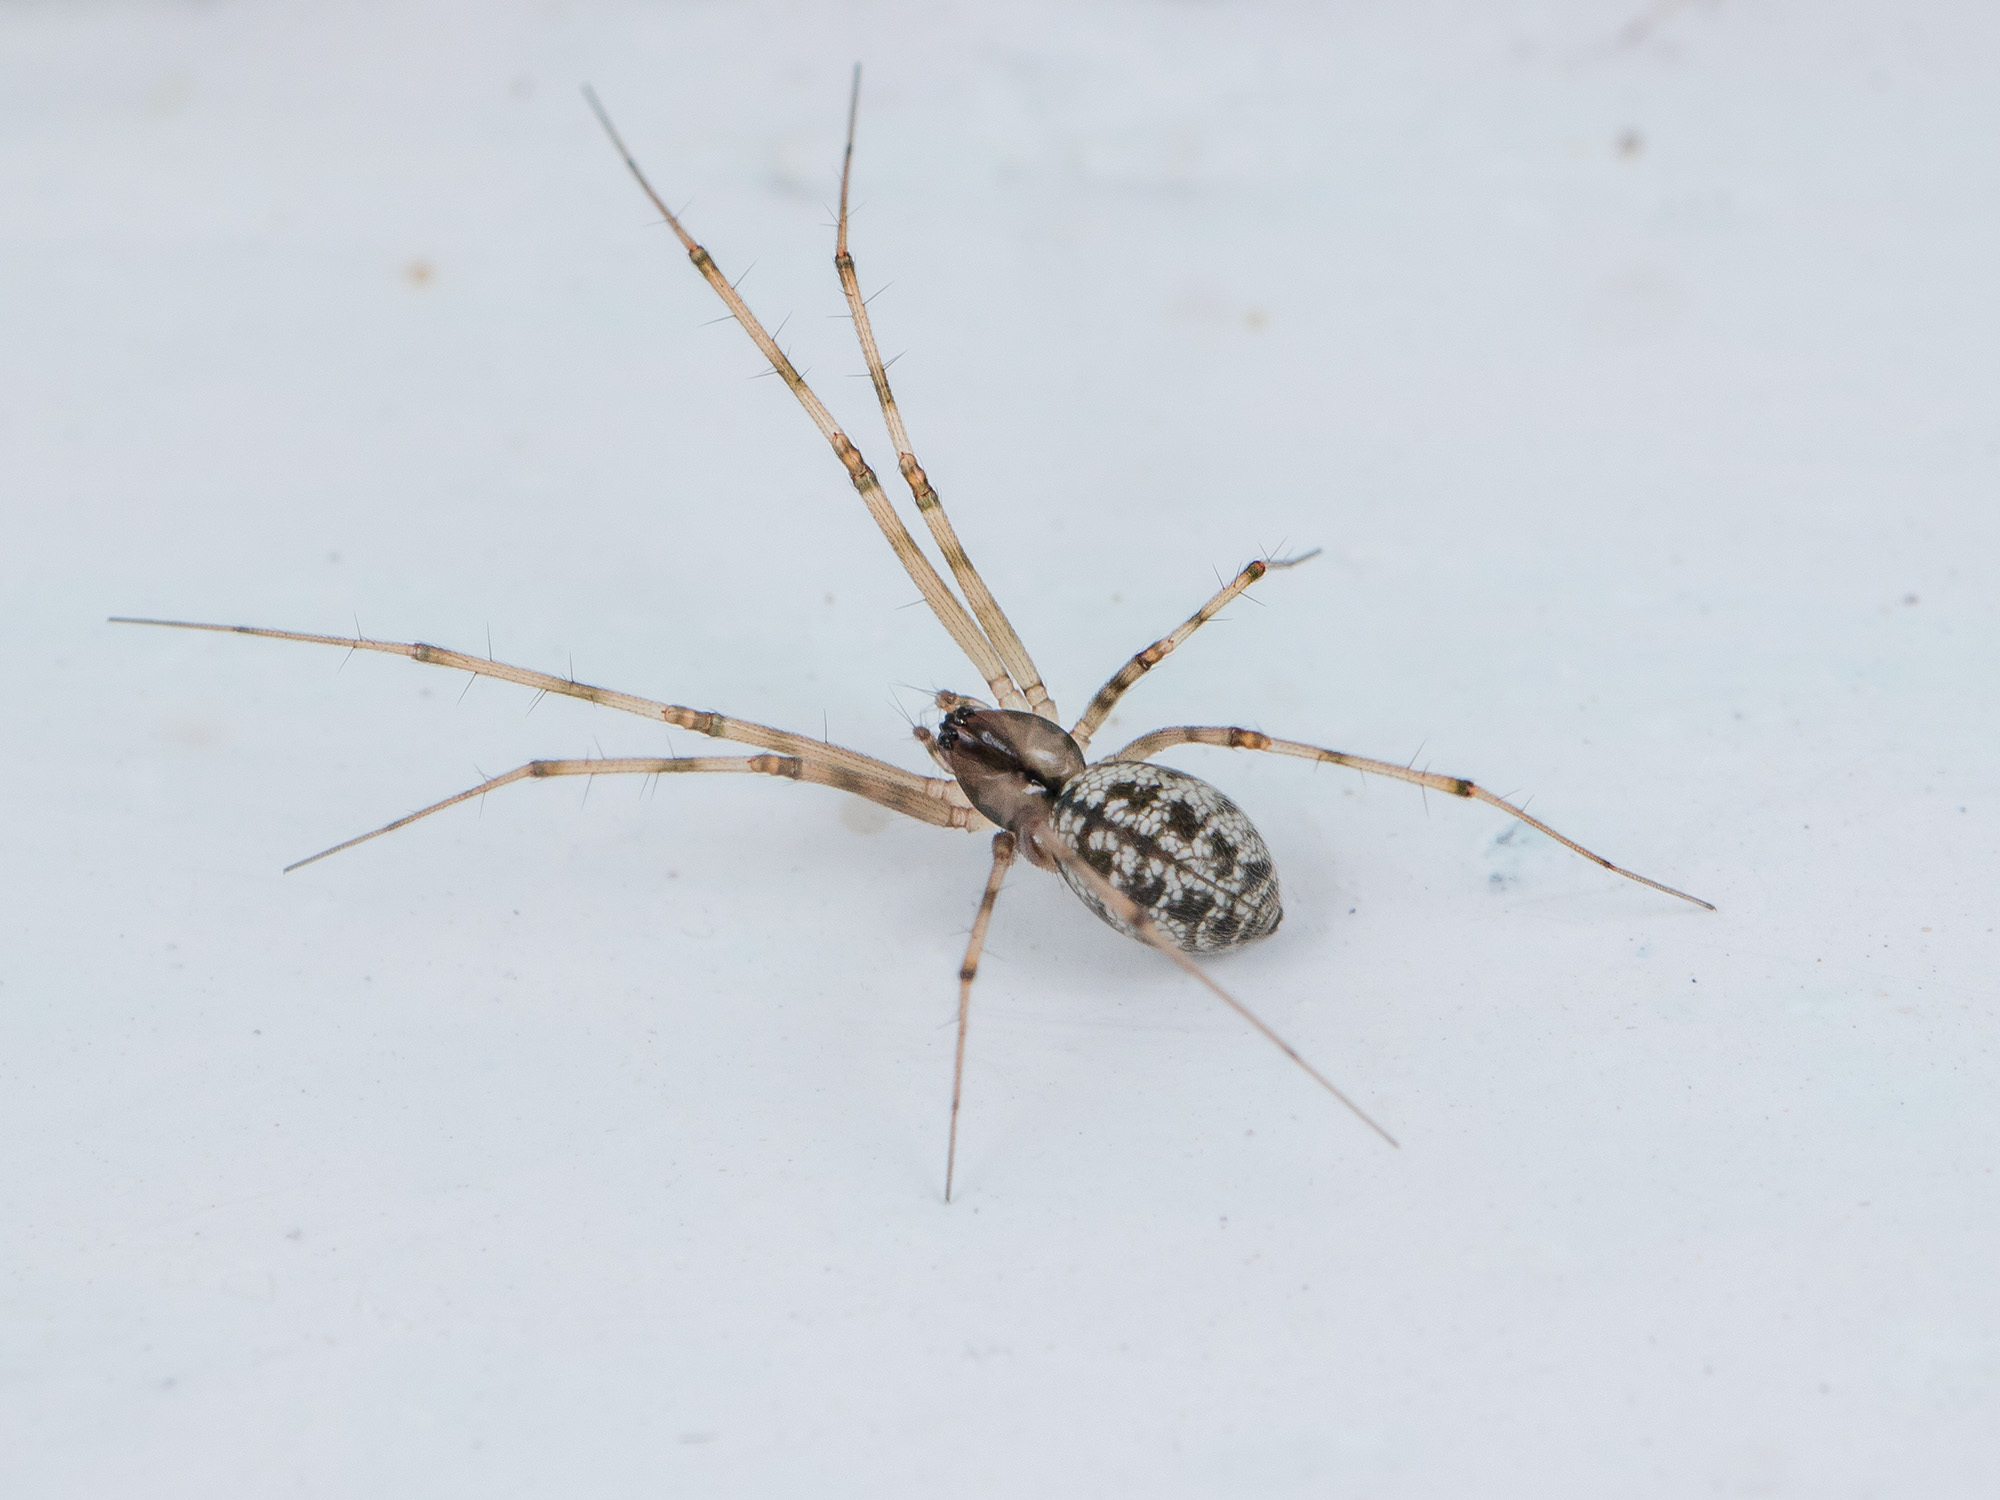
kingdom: Animalia
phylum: Arthropoda
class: Arachnida
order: Araneae
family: Linyphiidae
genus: Megalepthyphantes
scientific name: Megalepthyphantes kronebergi
